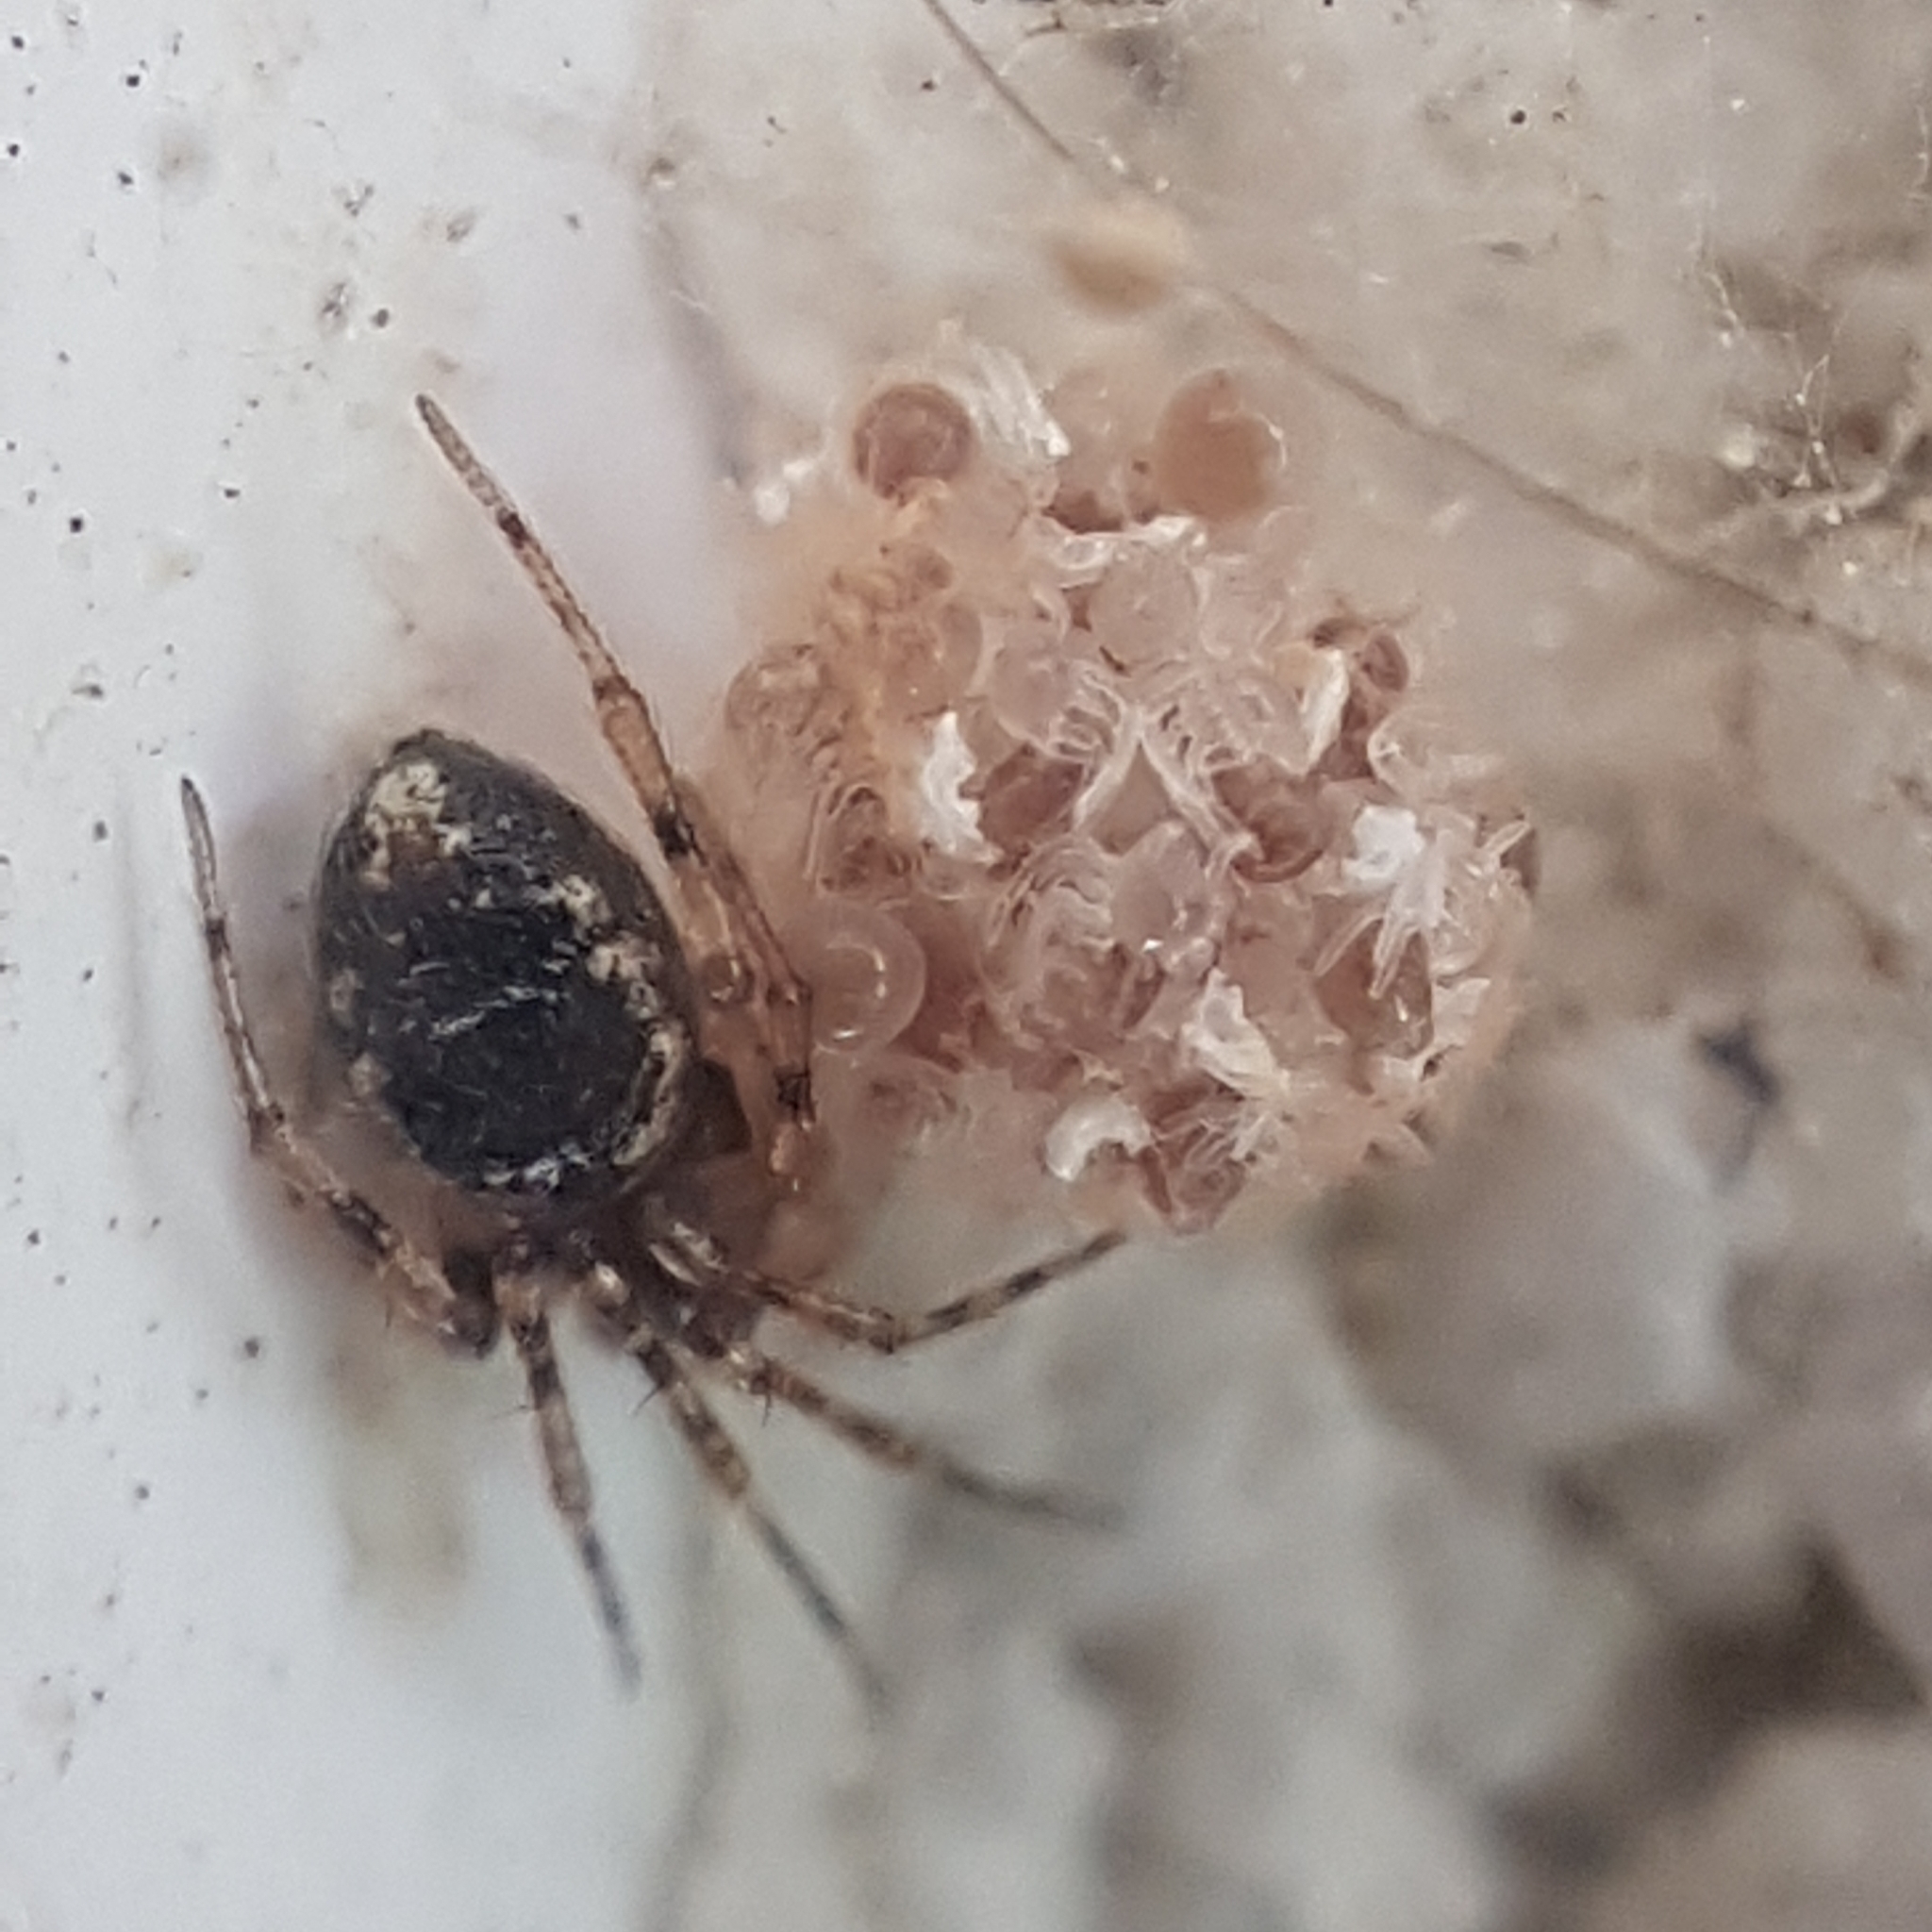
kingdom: Animalia
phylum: Arthropoda
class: Arachnida
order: Araneae
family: Theridiidae
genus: Sardinidion
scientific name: Sardinidion blackwalli
